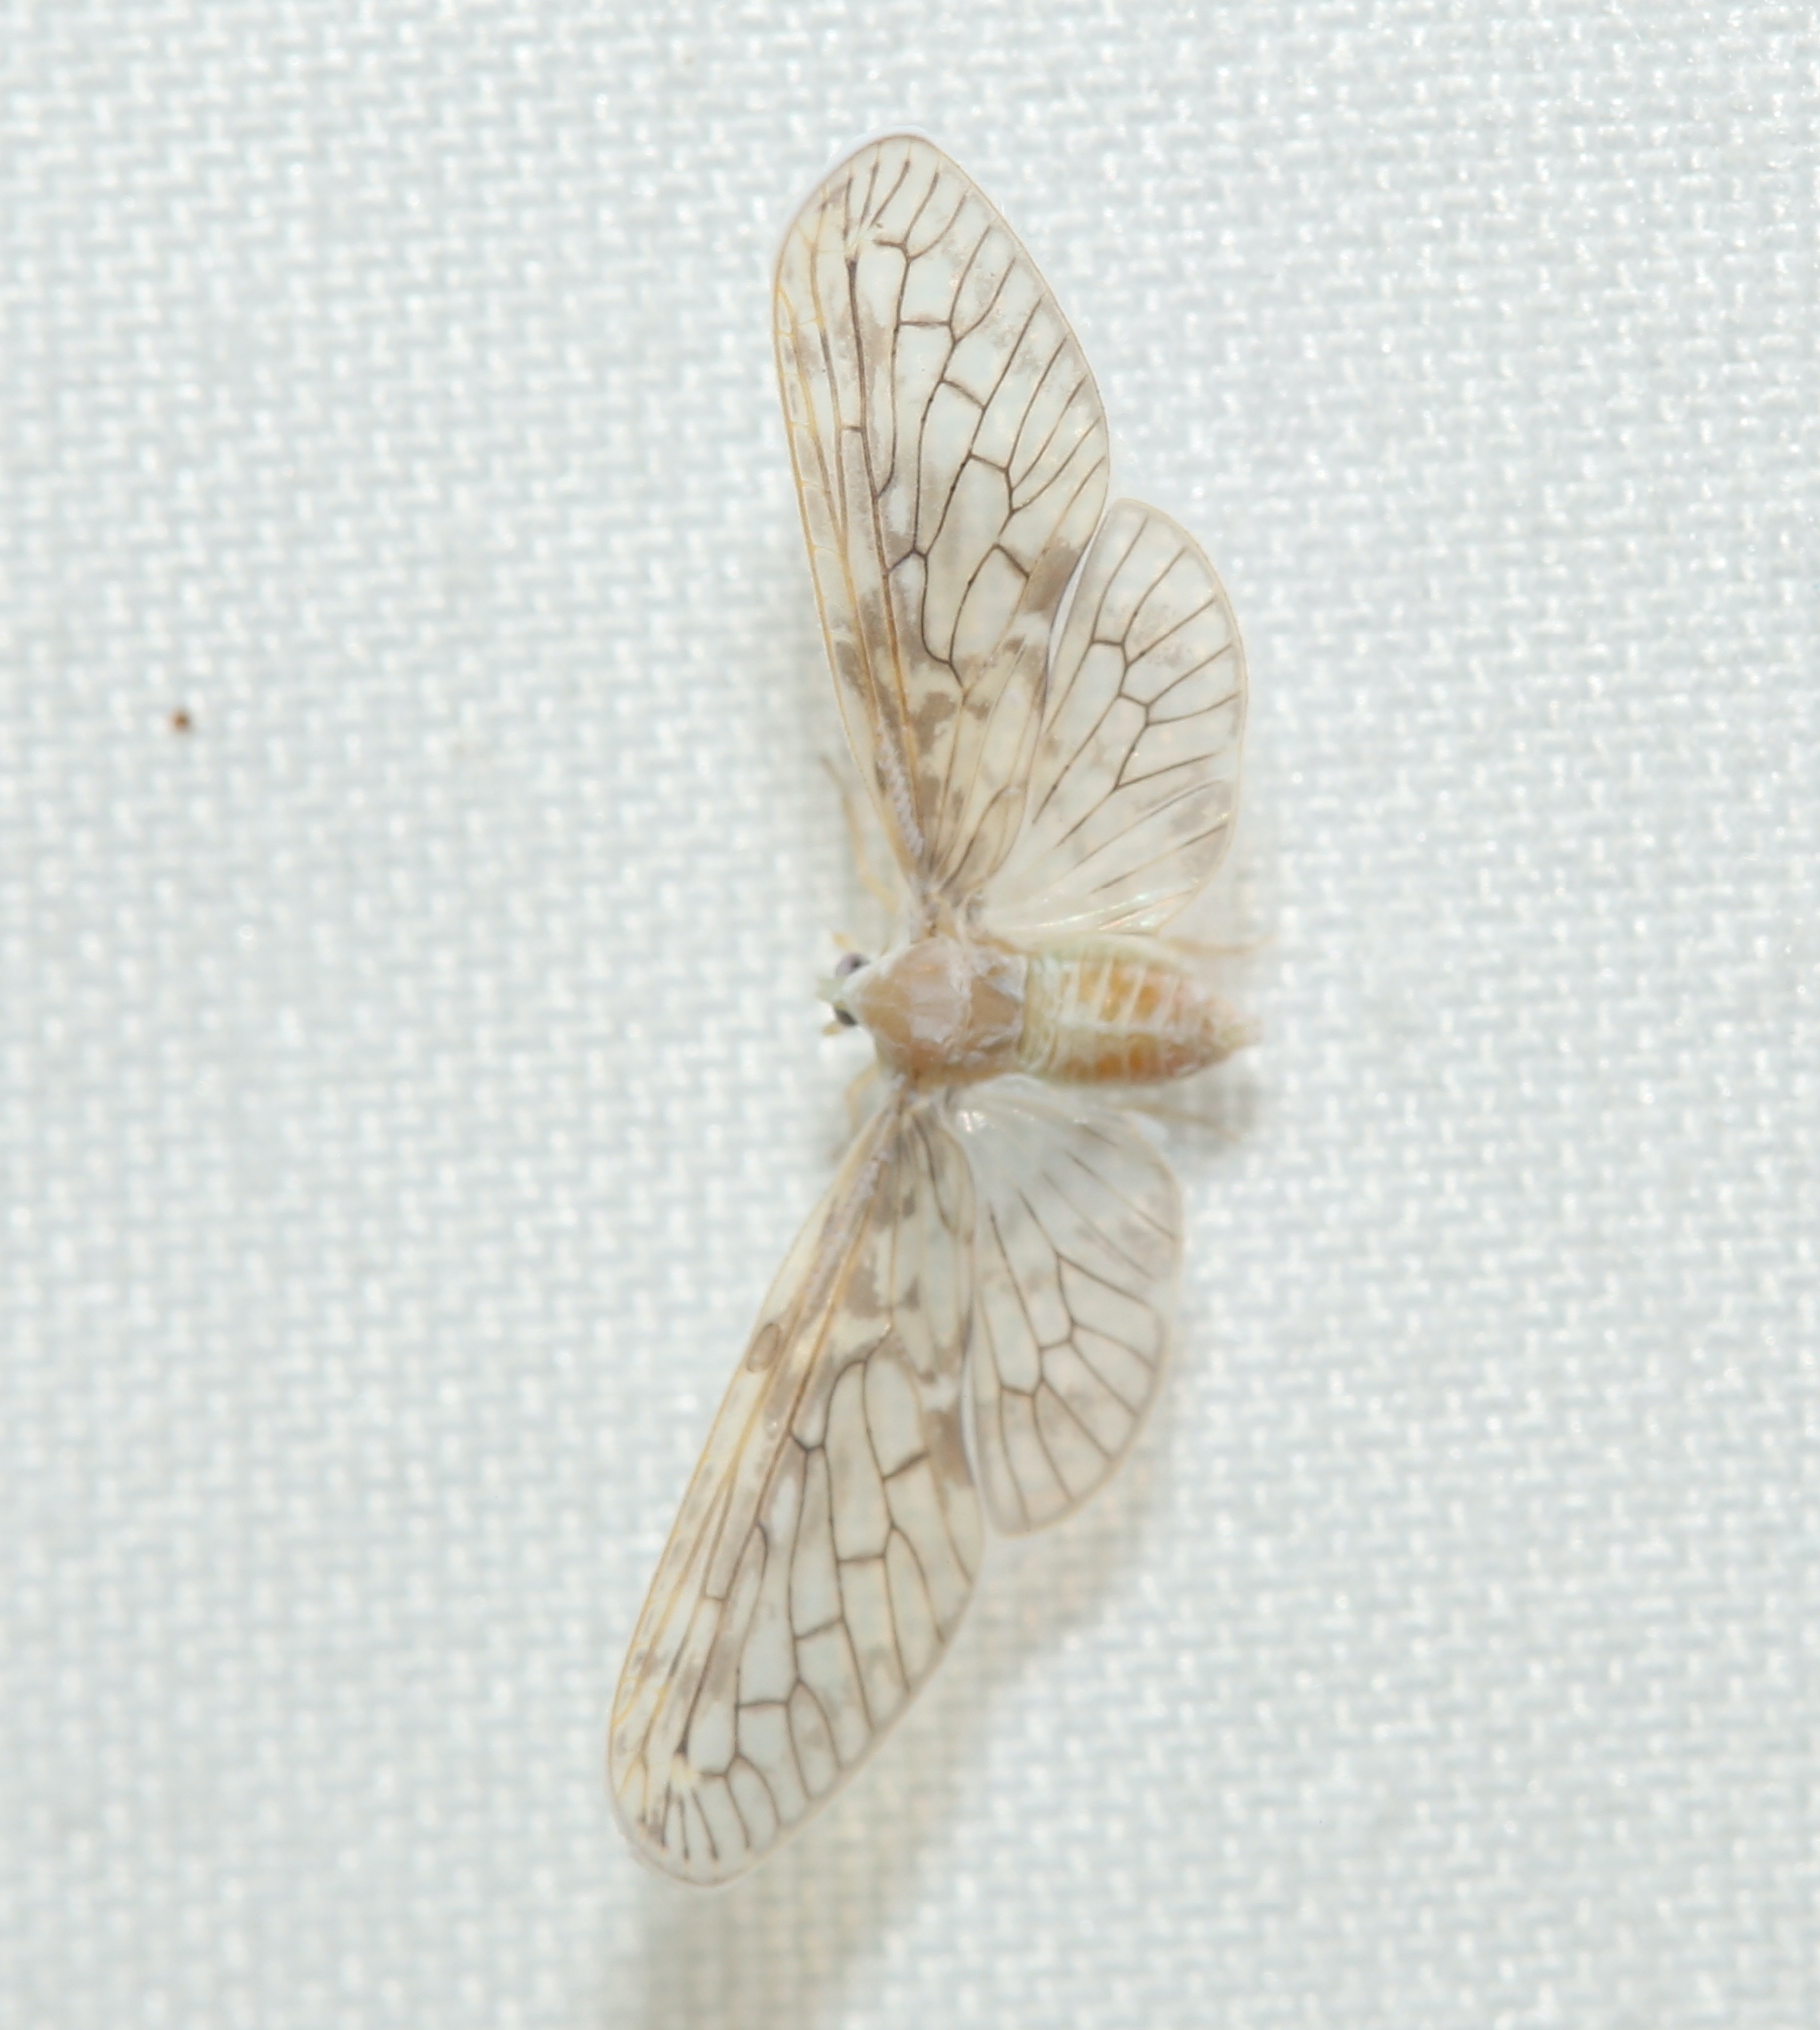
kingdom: Animalia
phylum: Arthropoda
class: Insecta
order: Hemiptera
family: Derbidae
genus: Paramysidia
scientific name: Paramysidia mississippiensis
